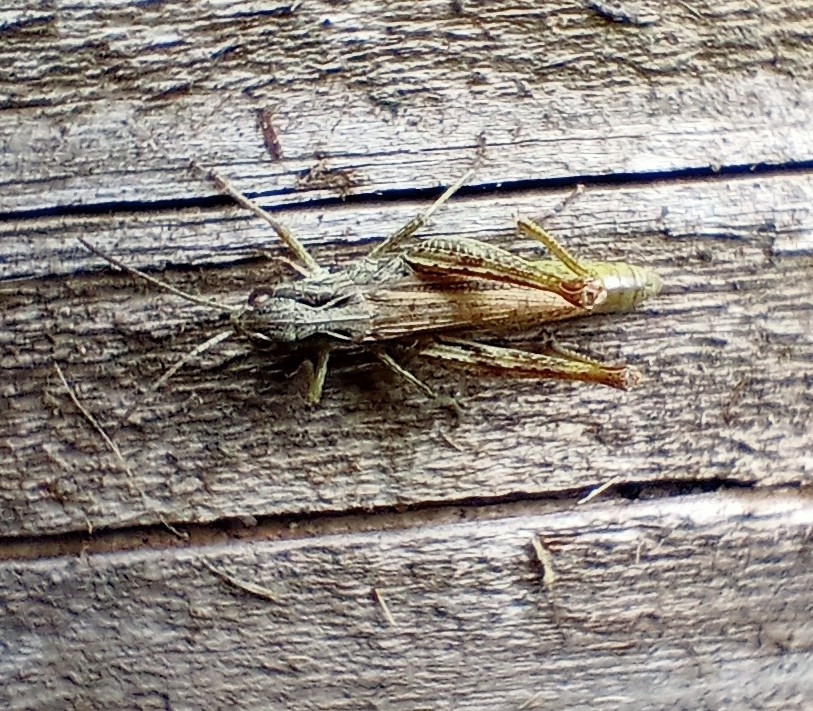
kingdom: Animalia
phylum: Arthropoda
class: Insecta
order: Orthoptera
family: Acrididae
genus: Chorthippus
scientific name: Chorthippus apricarius
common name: Upland field grasshopper
